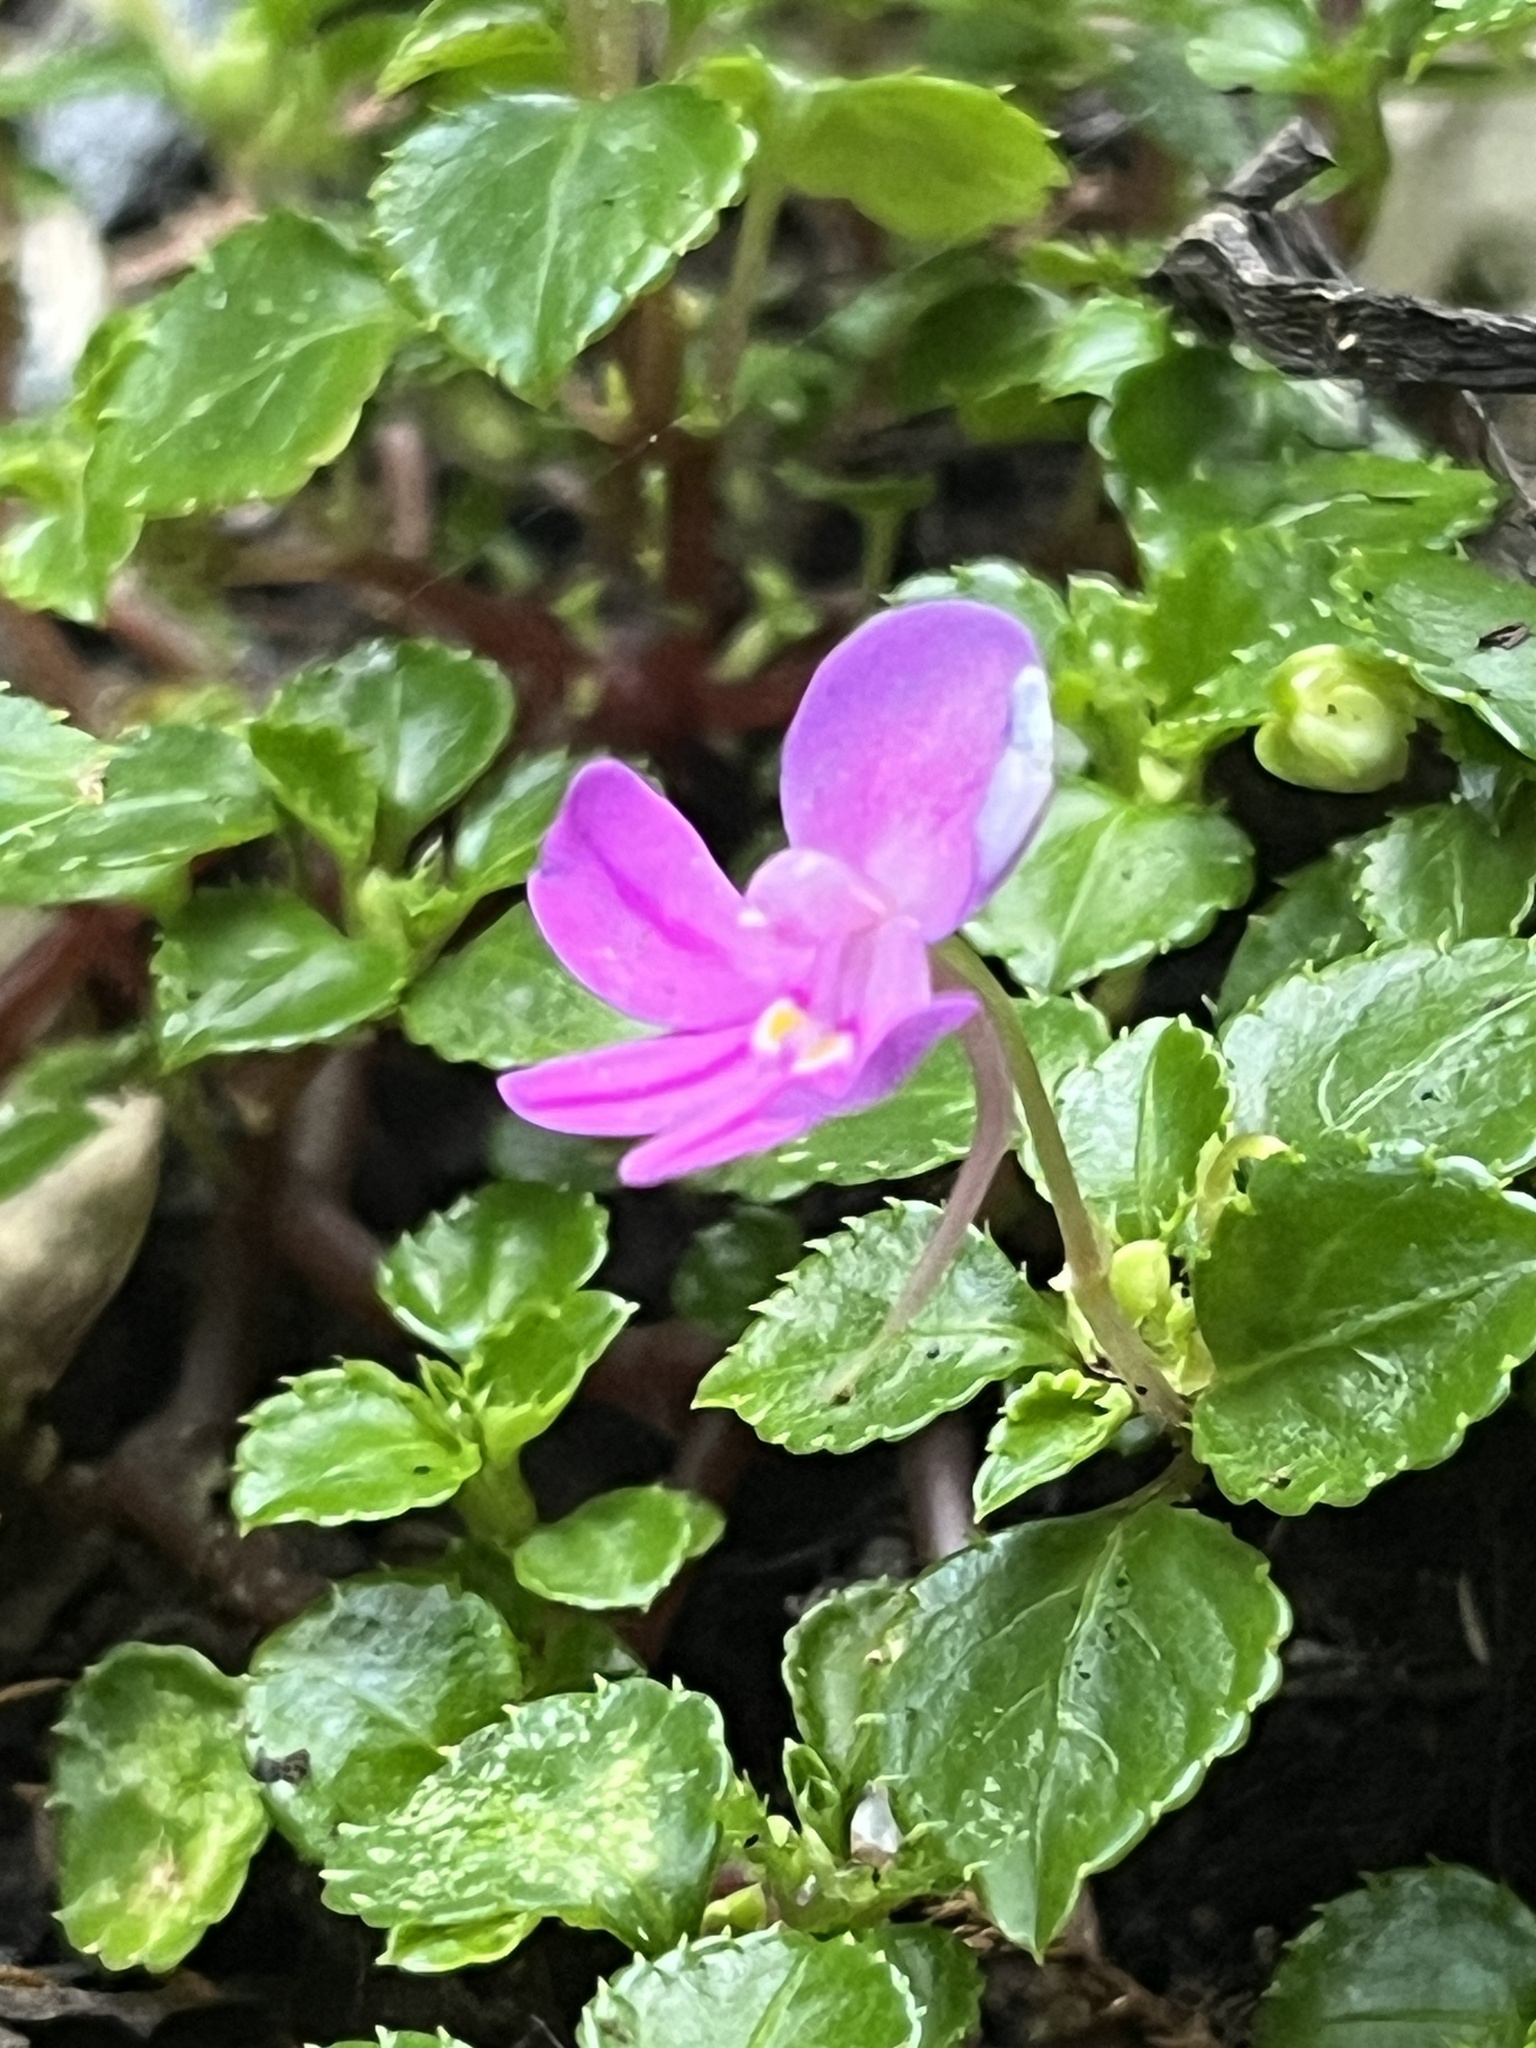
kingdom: Plantae
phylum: Tracheophyta
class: Magnoliopsida
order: Ericales
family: Balsaminaceae
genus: Impatiens
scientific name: Impatiens pseudoviola
